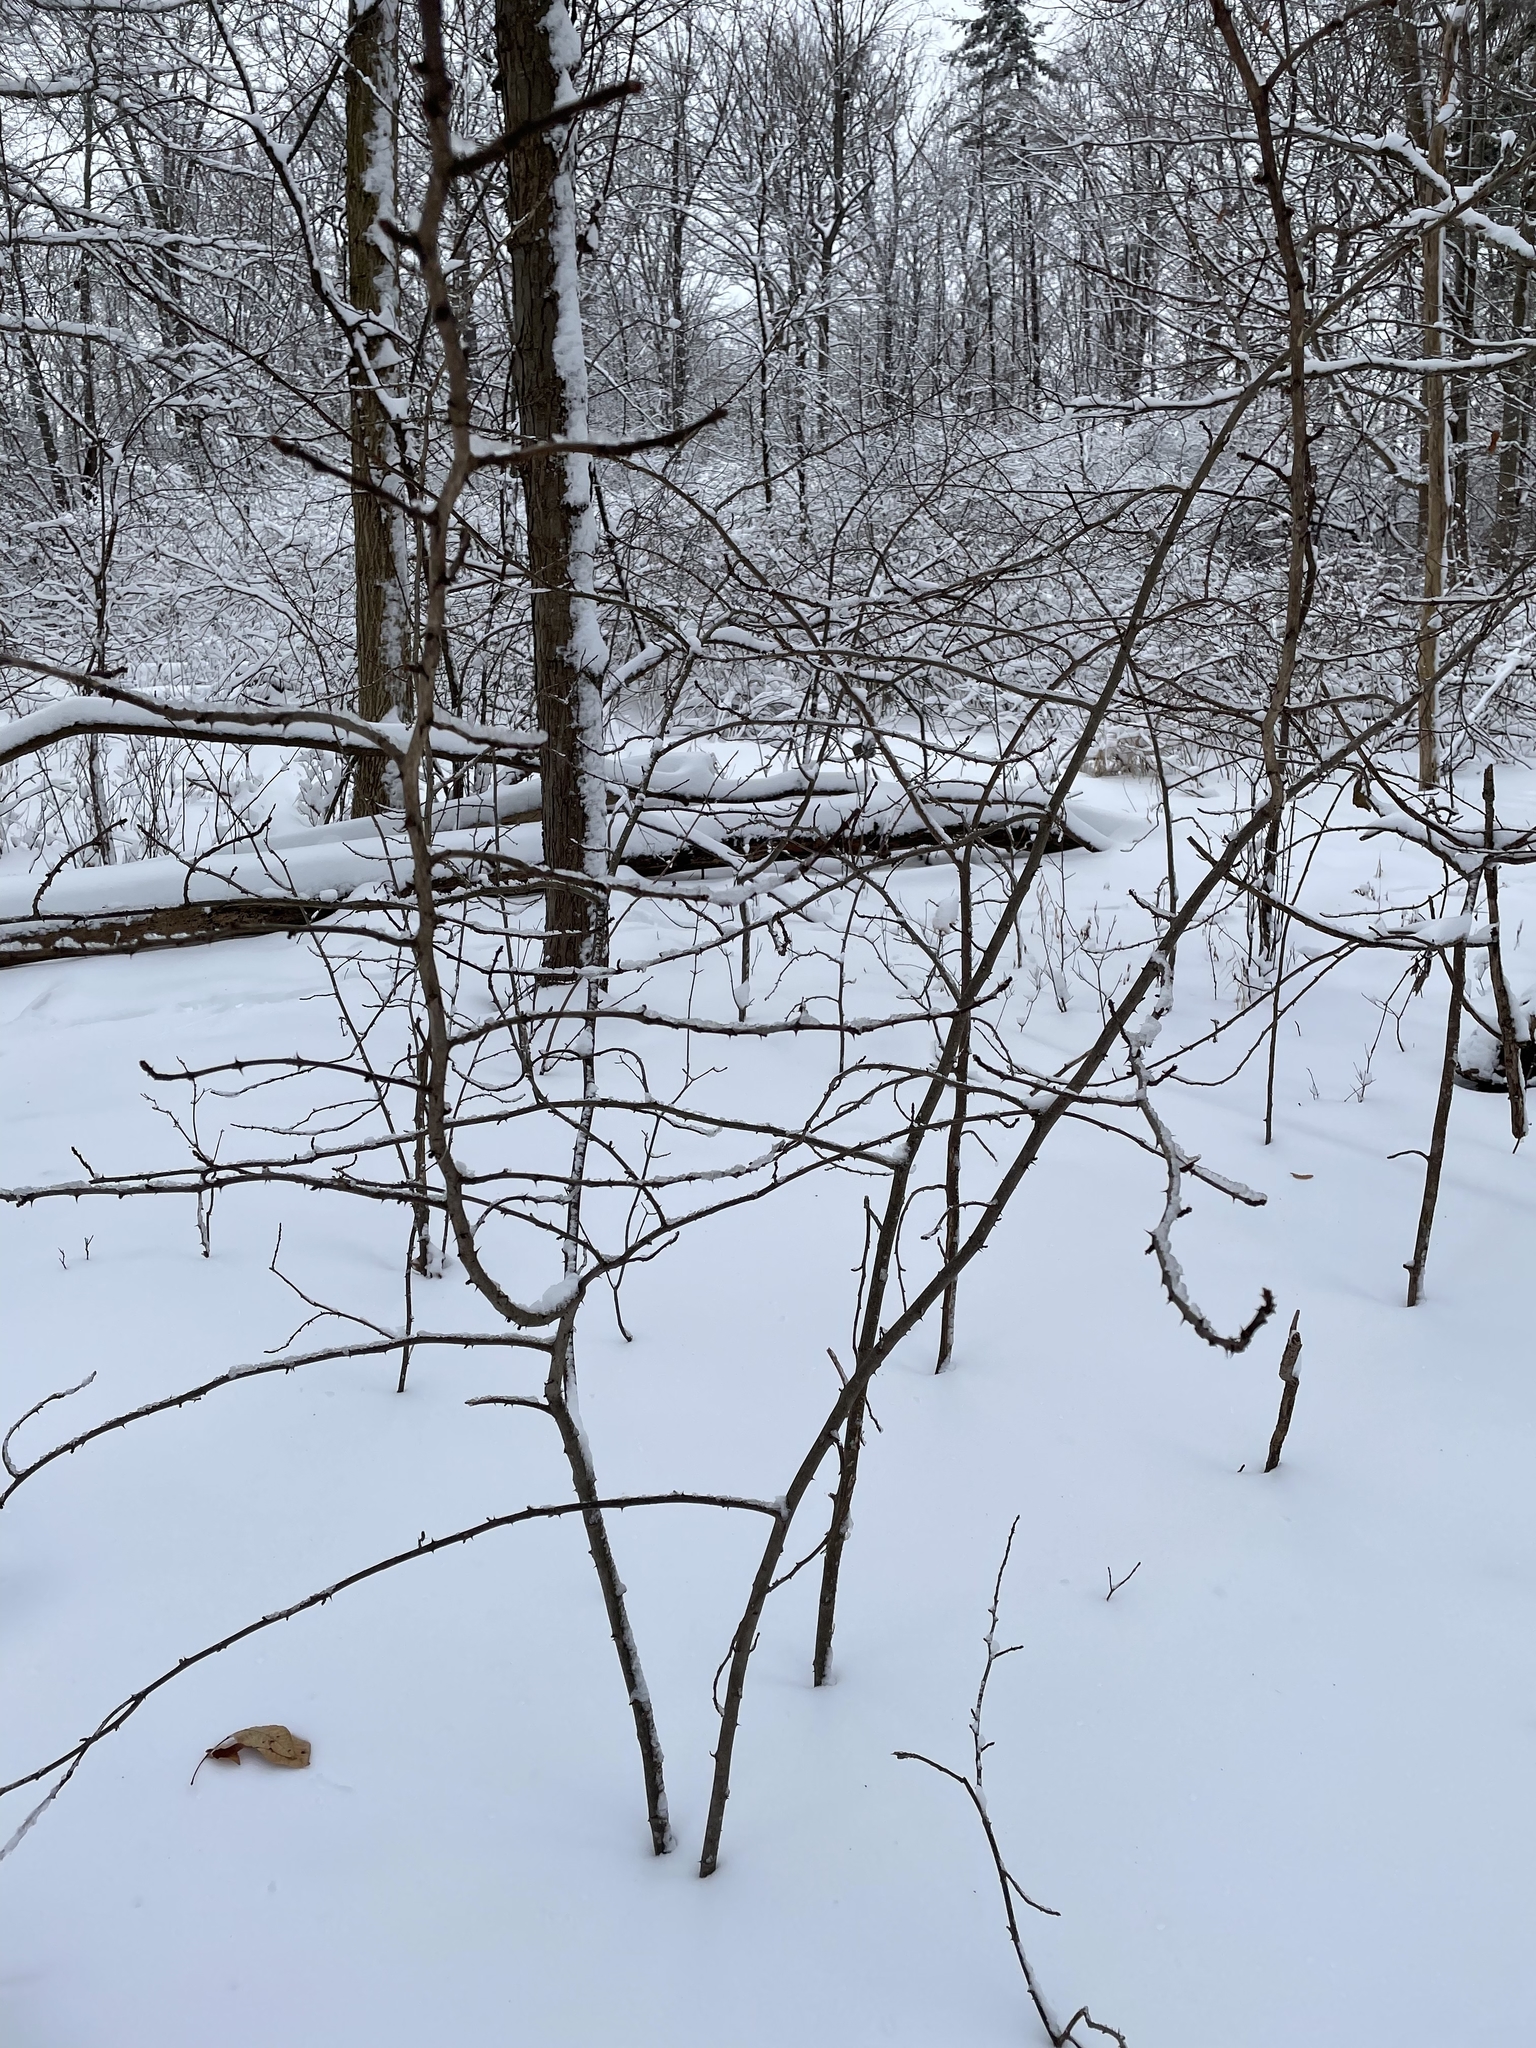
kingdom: Plantae
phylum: Tracheophyta
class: Magnoliopsida
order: Sapindales
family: Rutaceae
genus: Zanthoxylum
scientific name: Zanthoxylum americanum
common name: Northern prickly-ash
